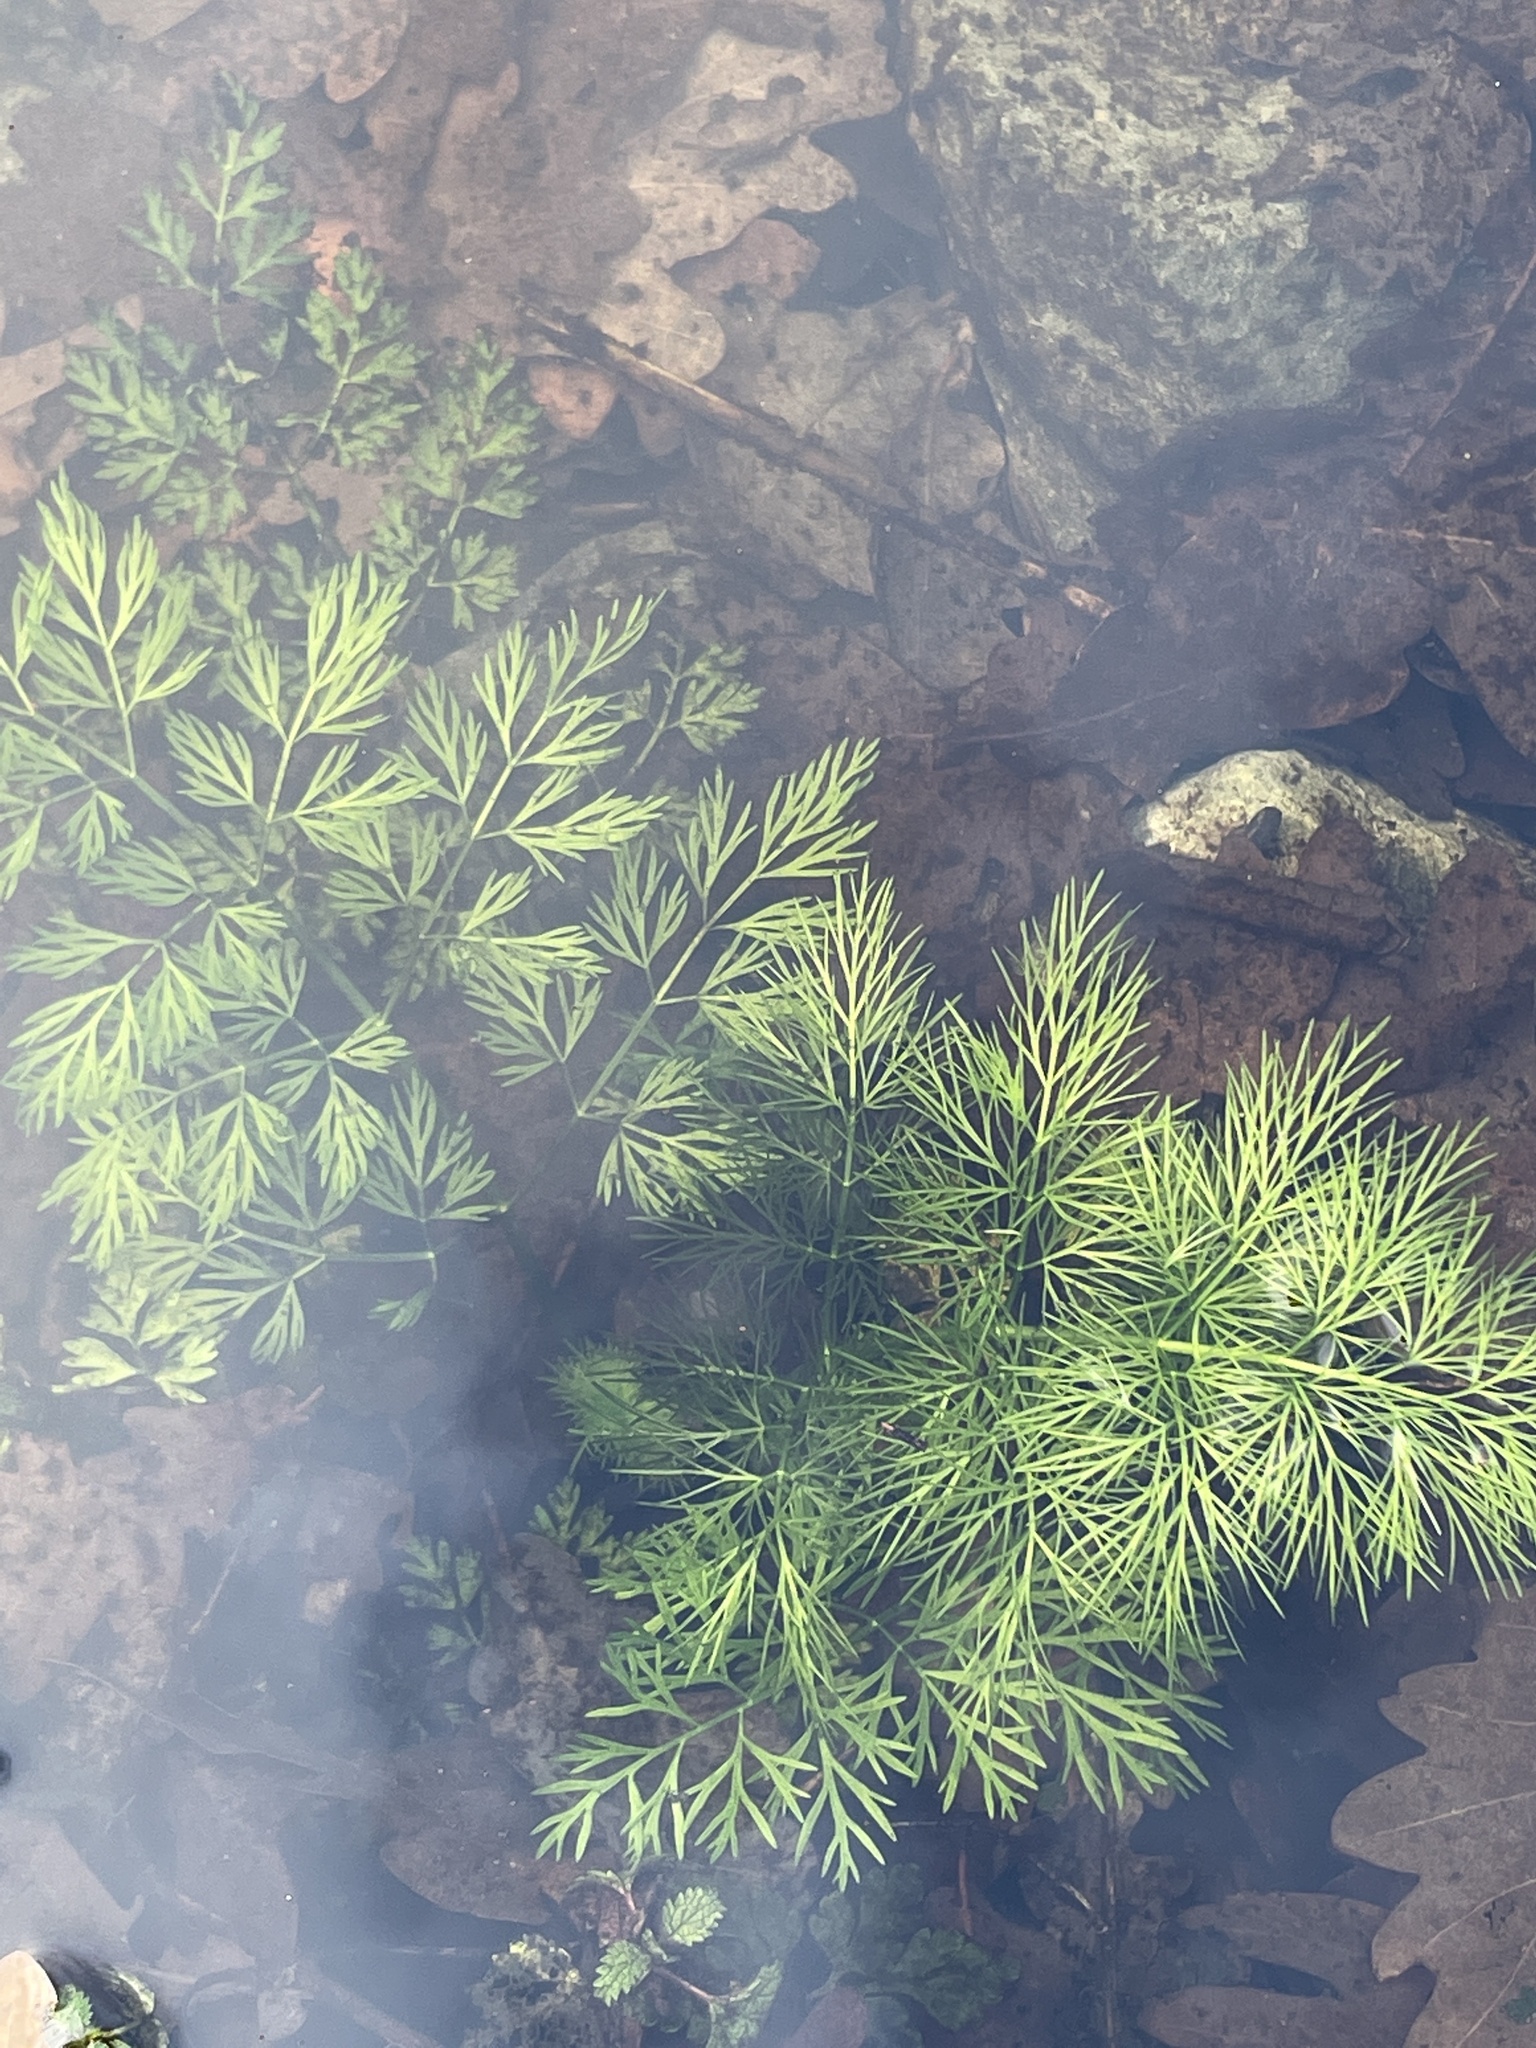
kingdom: Plantae
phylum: Tracheophyta
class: Magnoliopsida
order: Apiales
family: Apiaceae
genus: Oenanthe
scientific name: Oenanthe aquatica
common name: Fine-leaved water-dropwort
